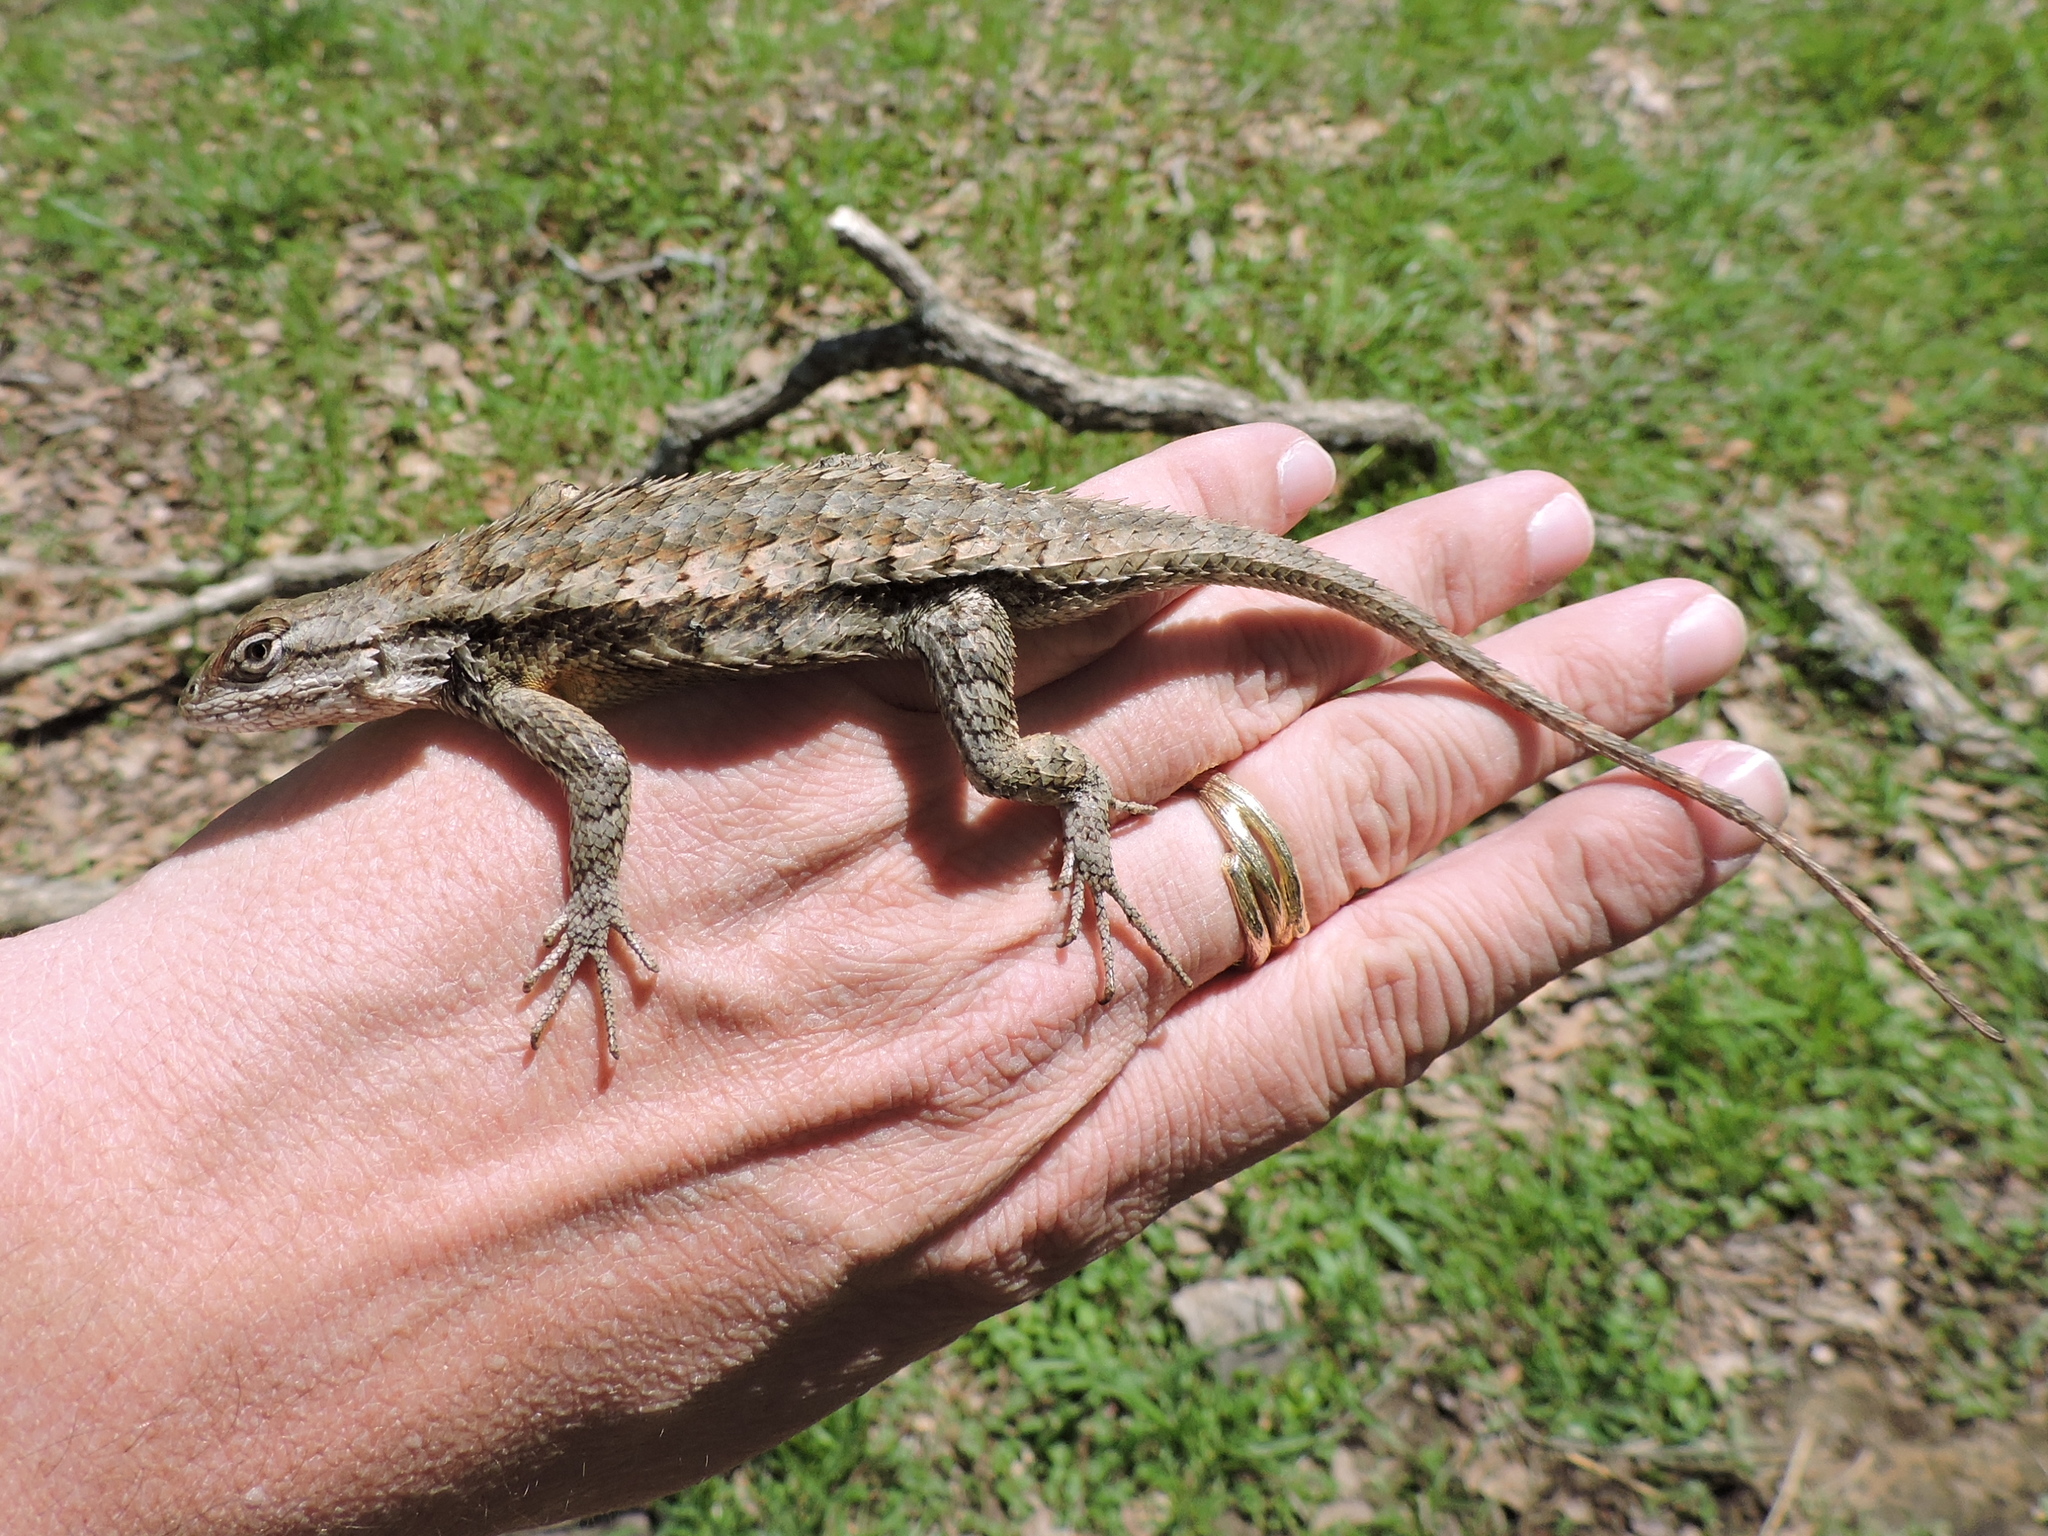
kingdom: Animalia
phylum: Chordata
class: Squamata
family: Phrynosomatidae
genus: Sceloporus
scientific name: Sceloporus olivaceus
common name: Texas spiny lizard
